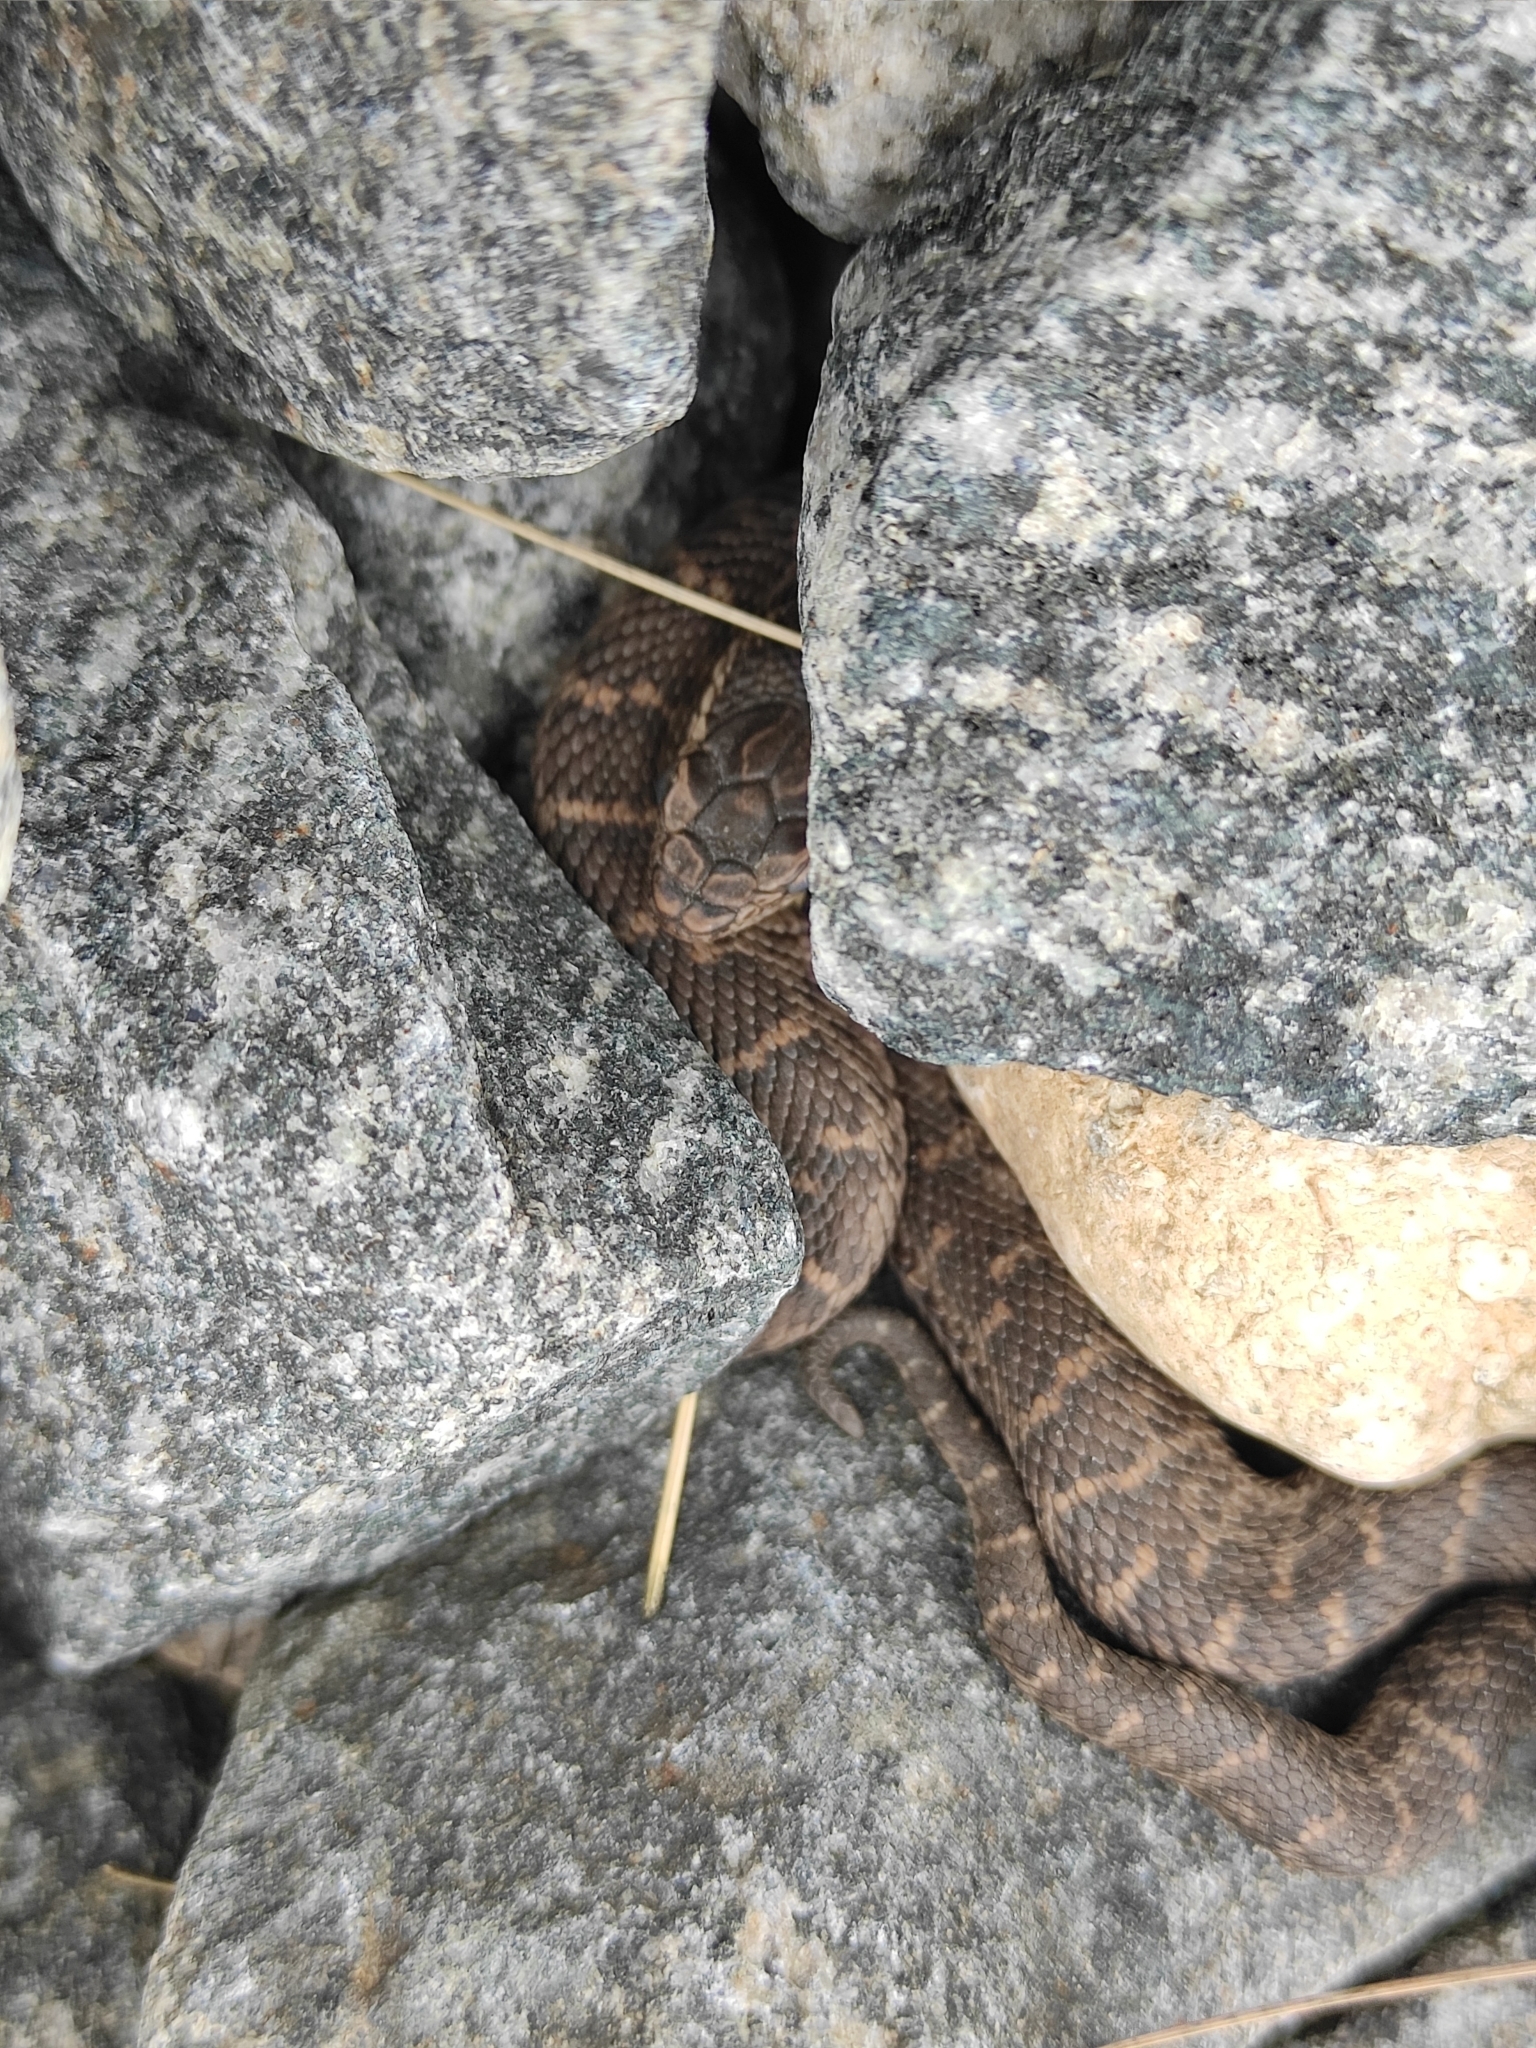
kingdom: Animalia
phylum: Chordata
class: Squamata
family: Viperidae
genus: Gloydius
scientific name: Gloydius halys
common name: Halys pit viper
